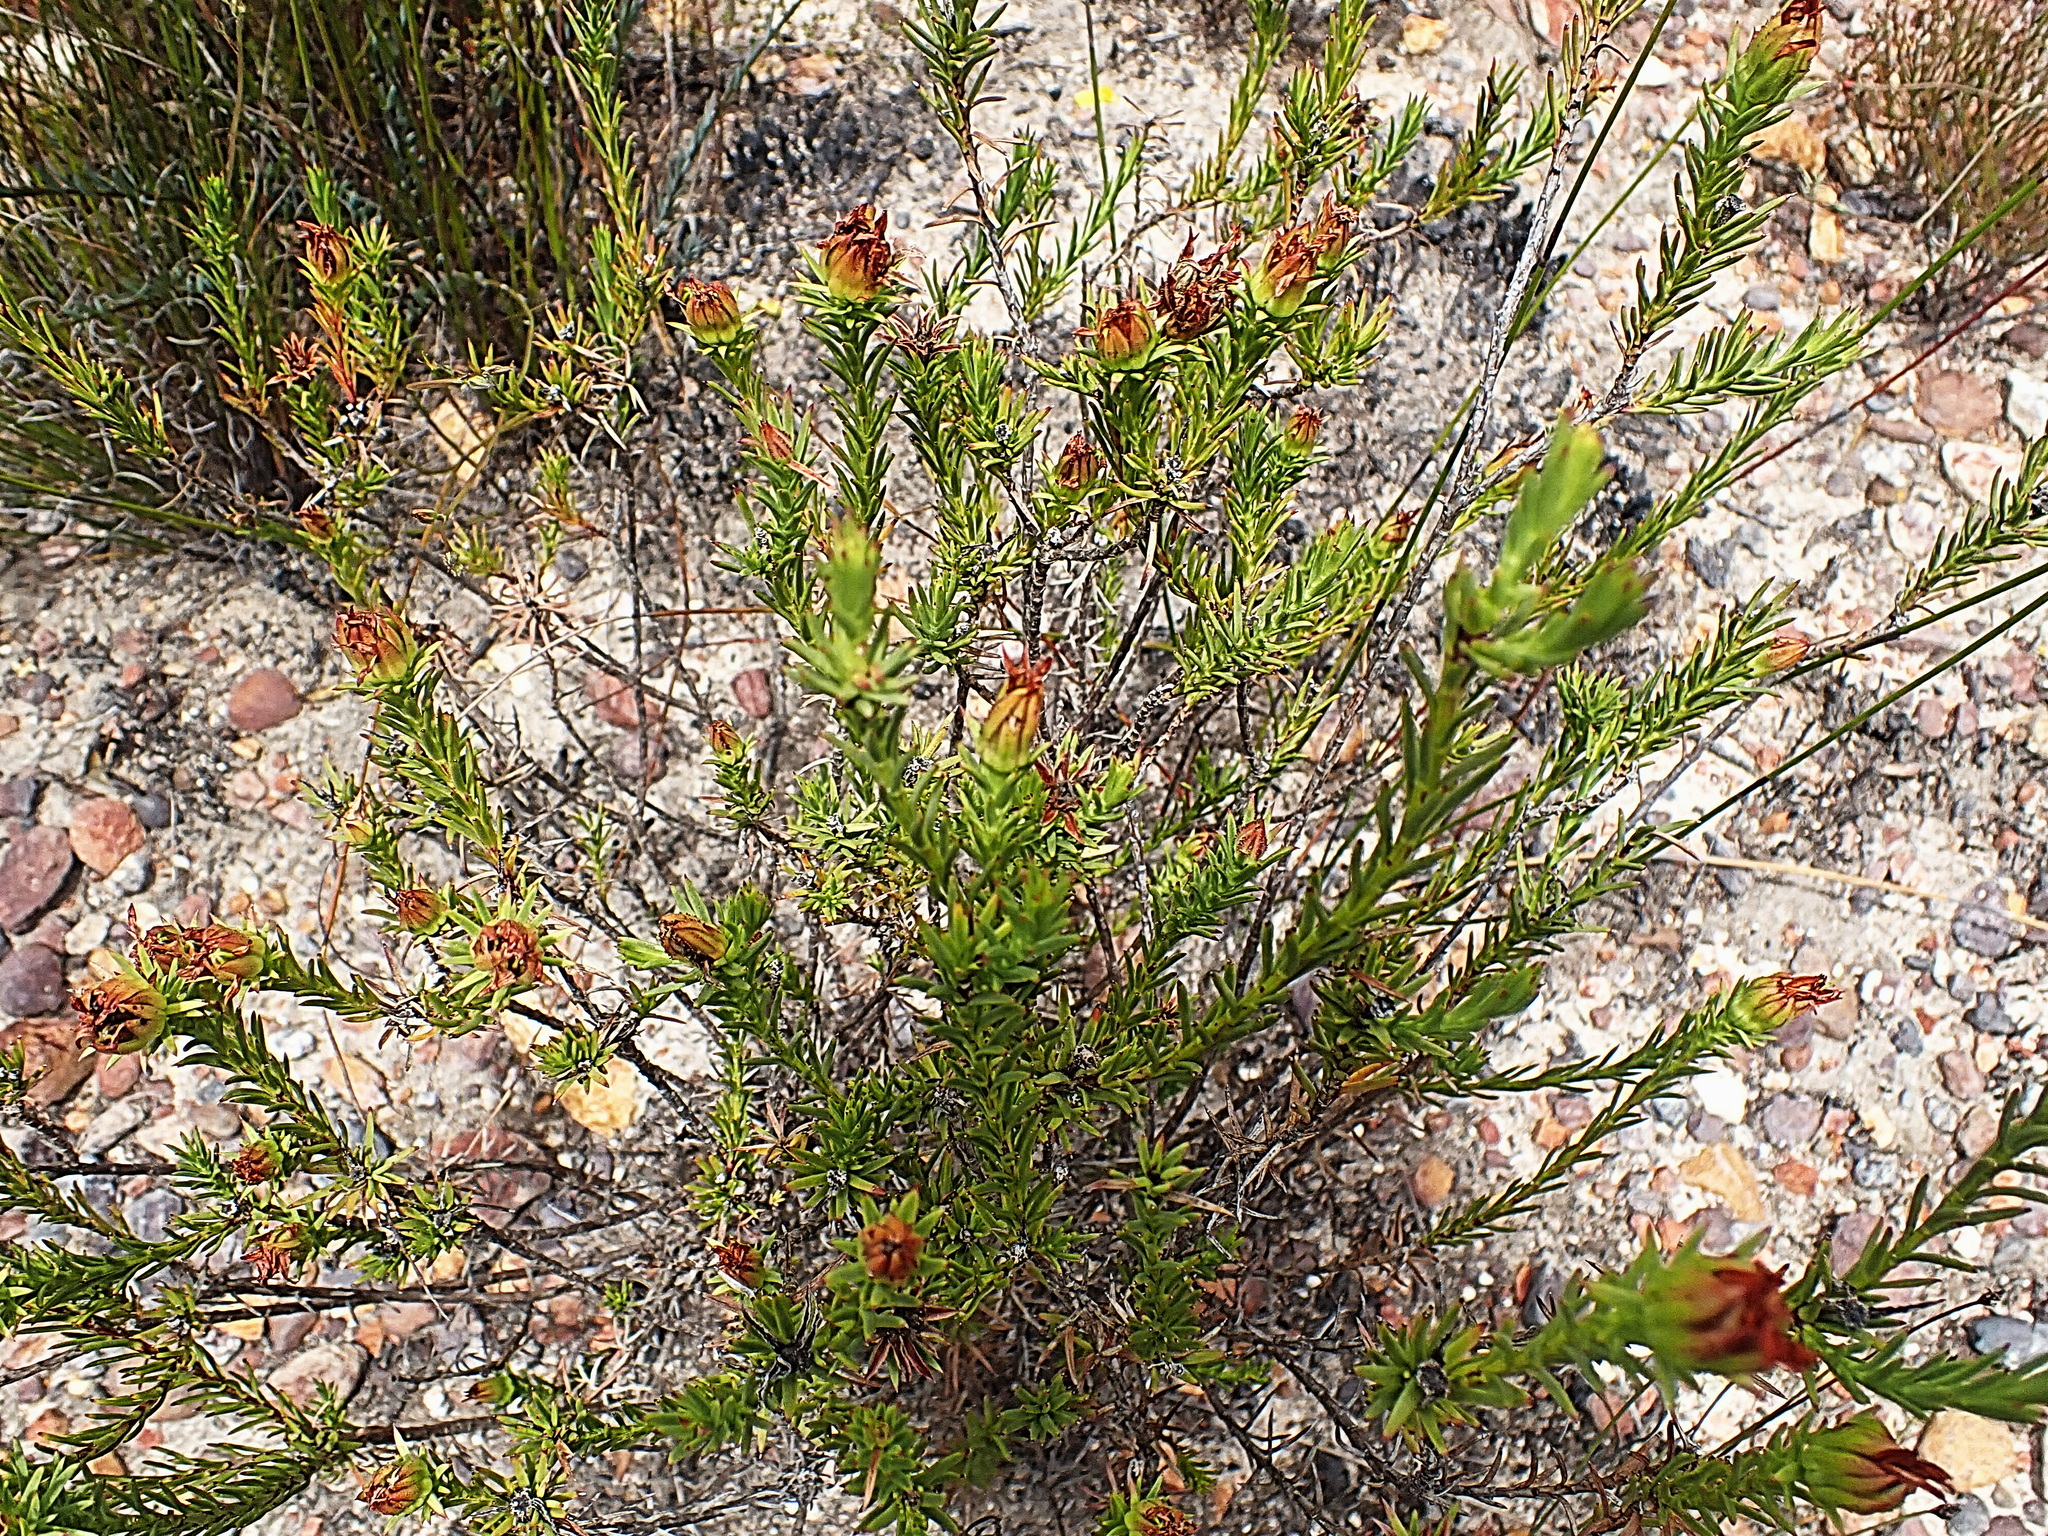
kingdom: Plantae
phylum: Tracheophyta
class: Magnoliopsida
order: Asterales
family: Asteraceae
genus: Oedera
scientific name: Oedera decussata
